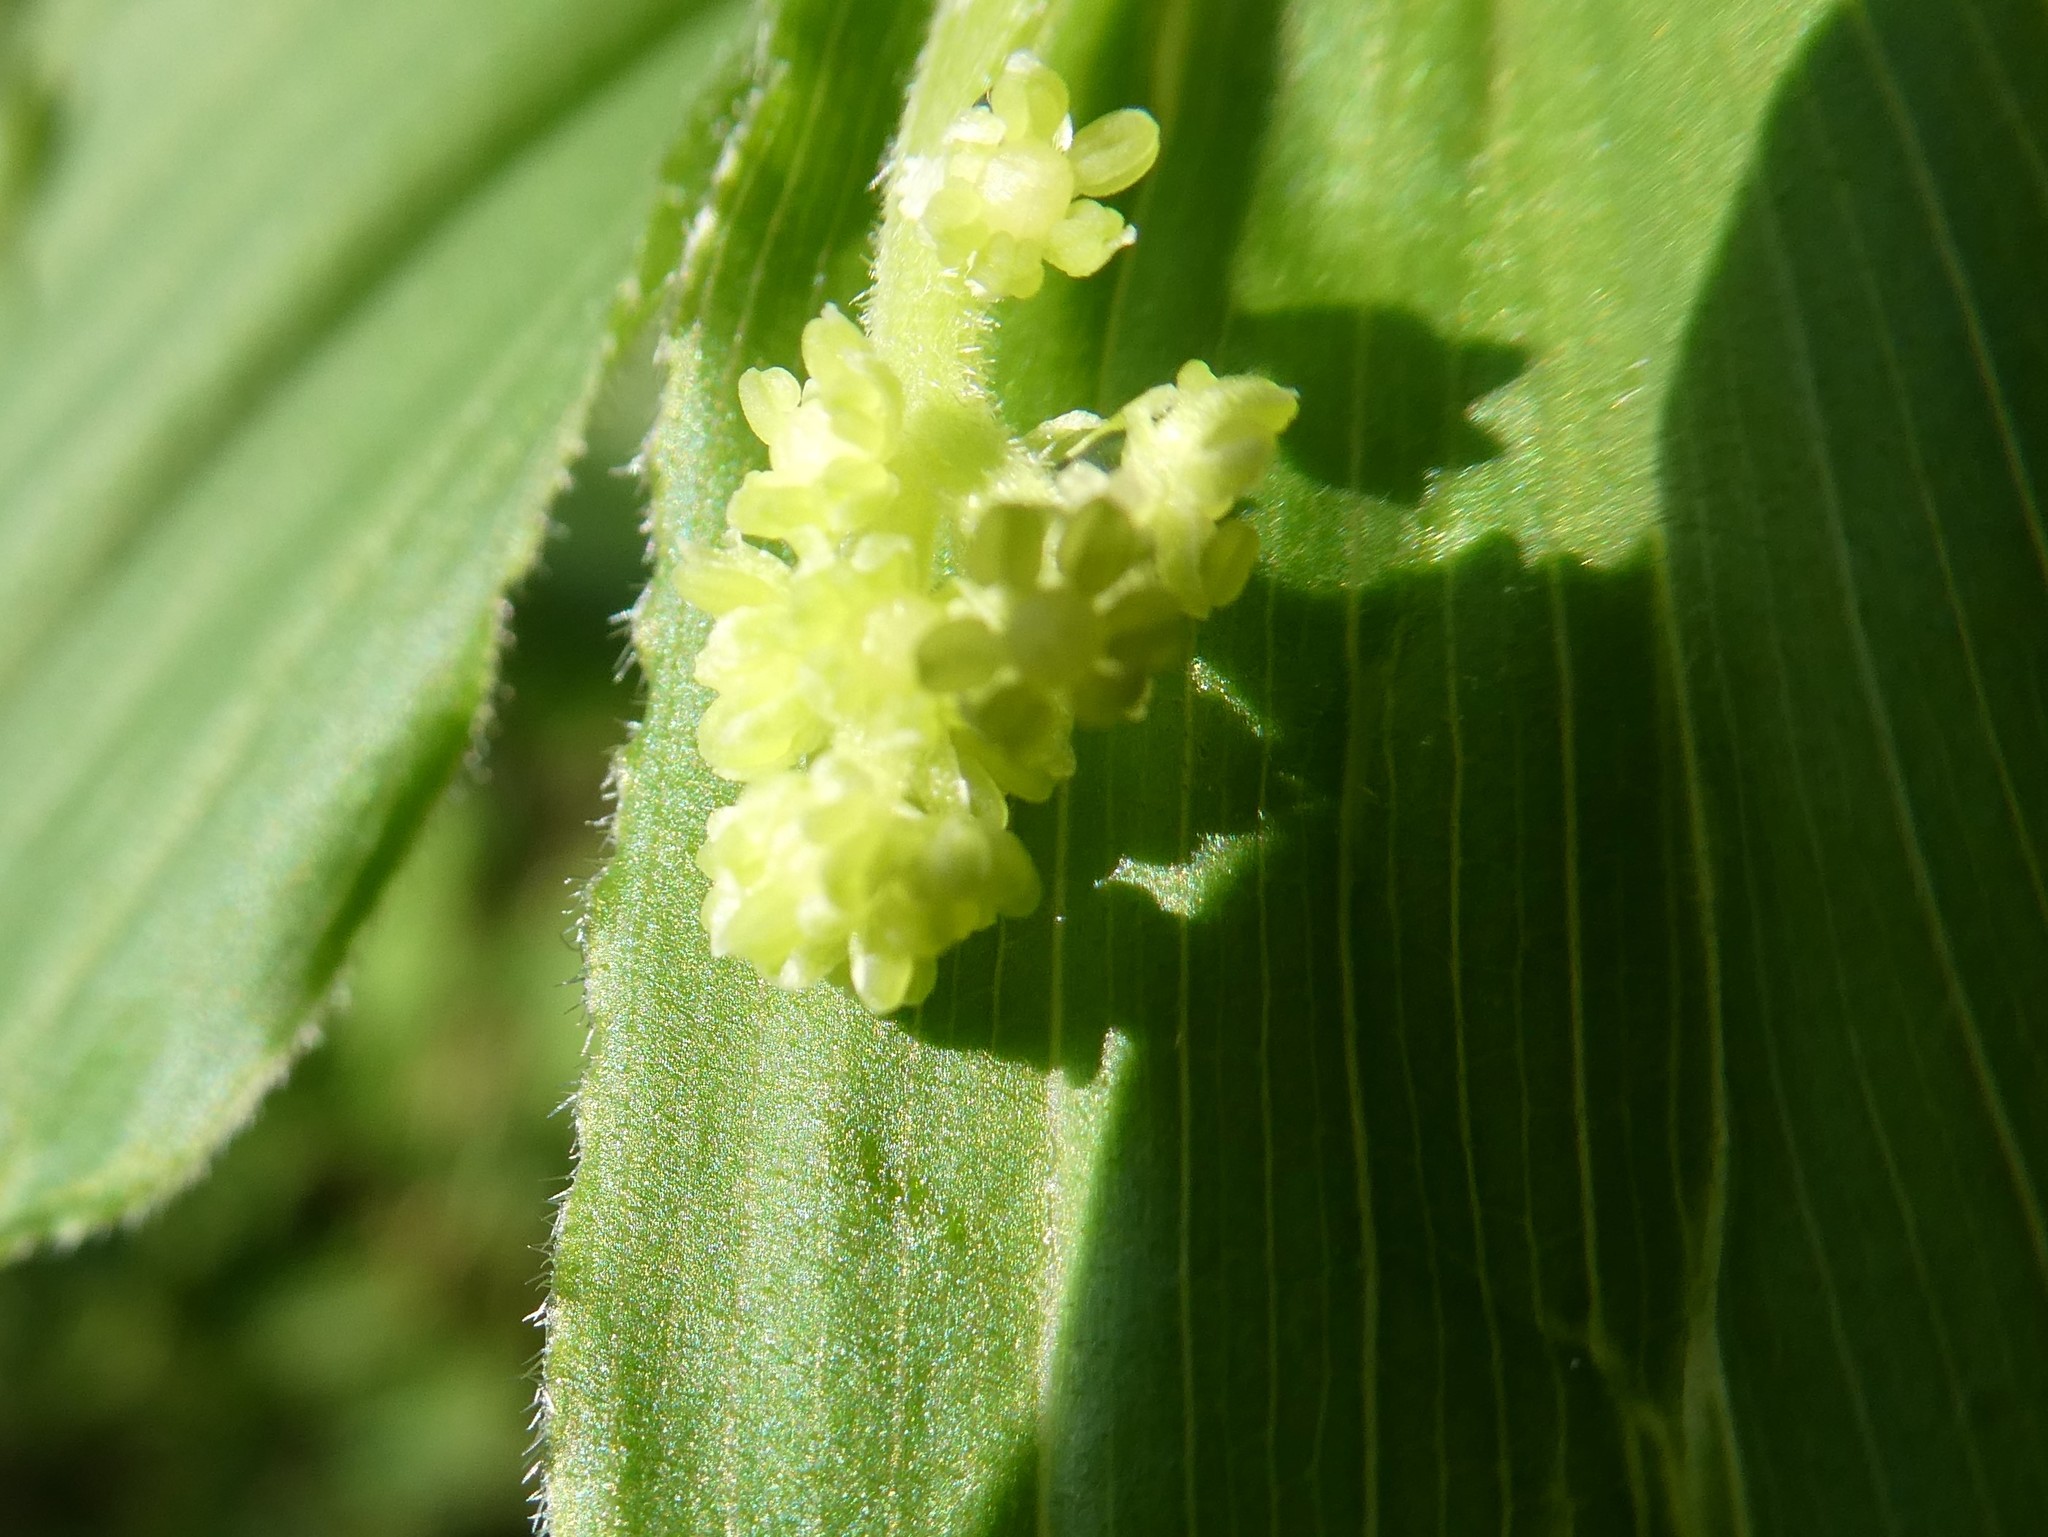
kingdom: Plantae
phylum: Tracheophyta
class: Liliopsida
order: Asparagales
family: Asparagaceae
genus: Maianthemum
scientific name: Maianthemum racemosum
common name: False spikenard
